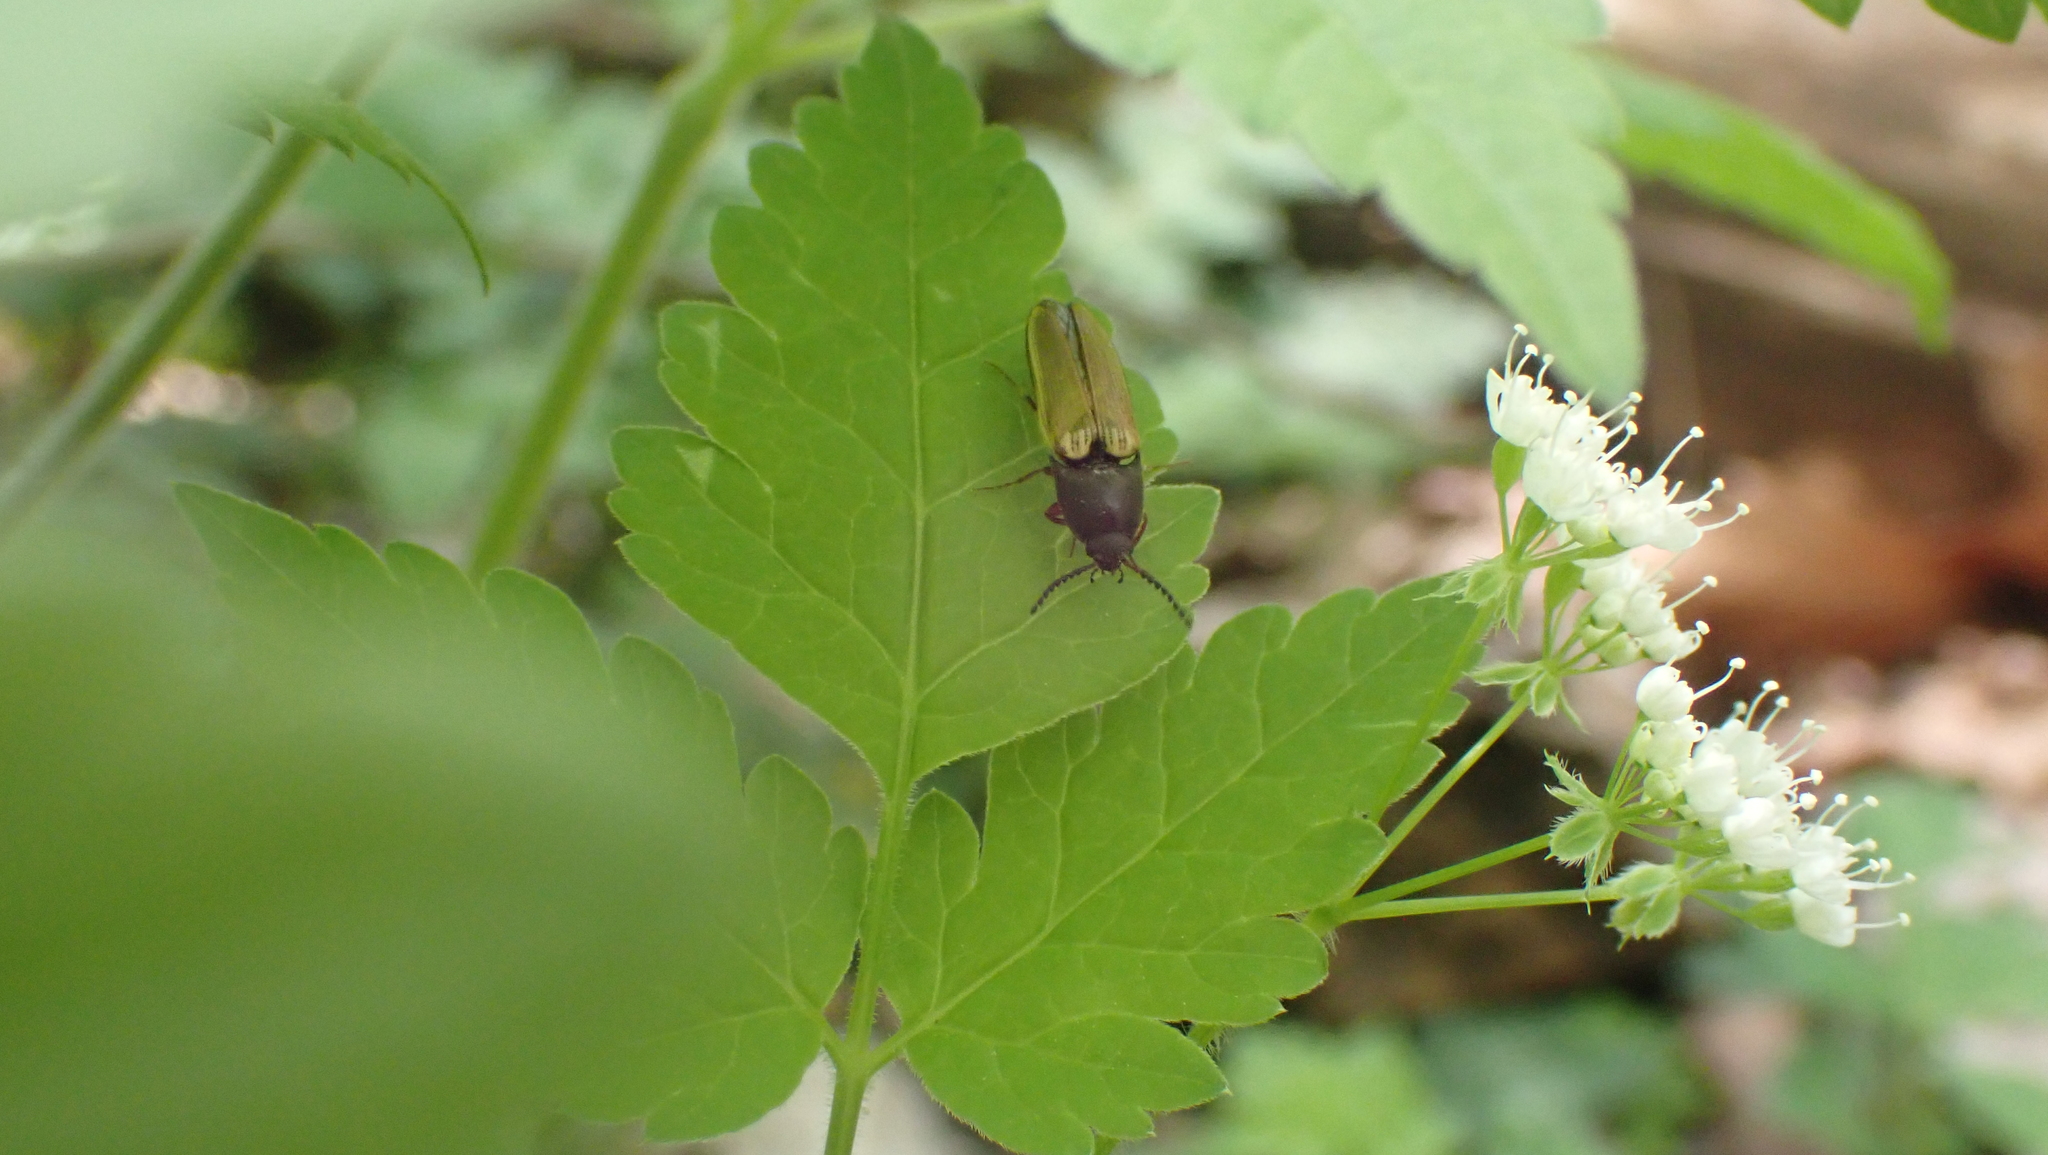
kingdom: Animalia
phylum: Arthropoda
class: Insecta
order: Coleoptera
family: Elateridae
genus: Ampedus
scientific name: Ampedus nigricollis
